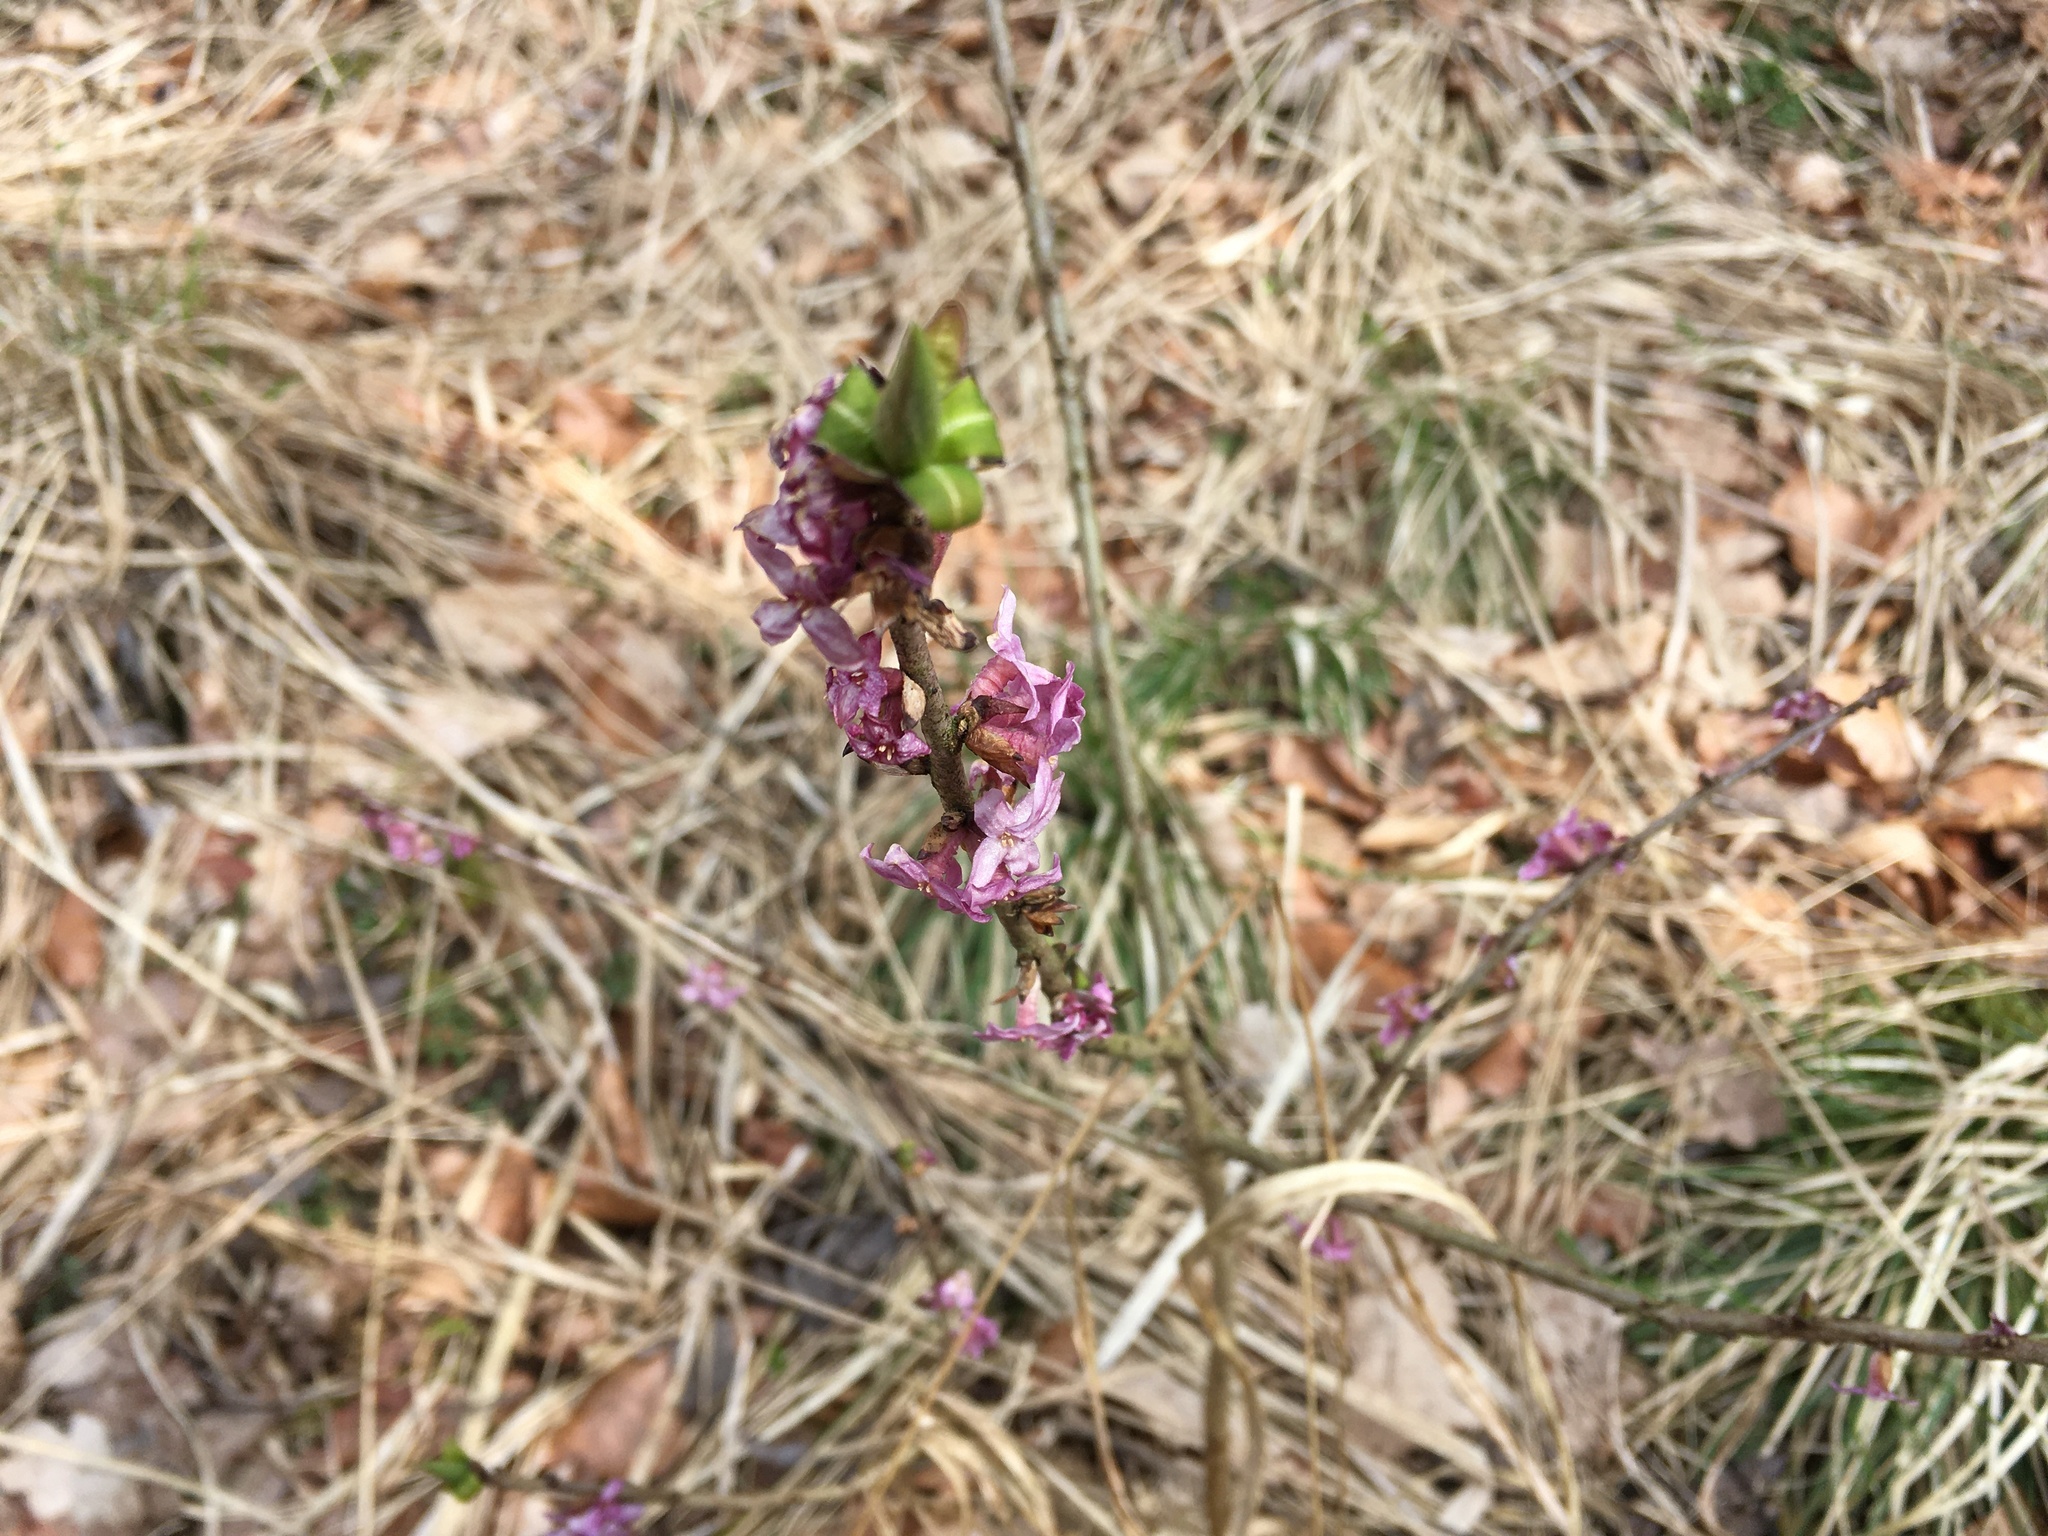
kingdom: Plantae
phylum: Tracheophyta
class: Magnoliopsida
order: Malvales
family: Thymelaeaceae
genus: Daphne
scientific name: Daphne mezereum
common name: Mezereon
